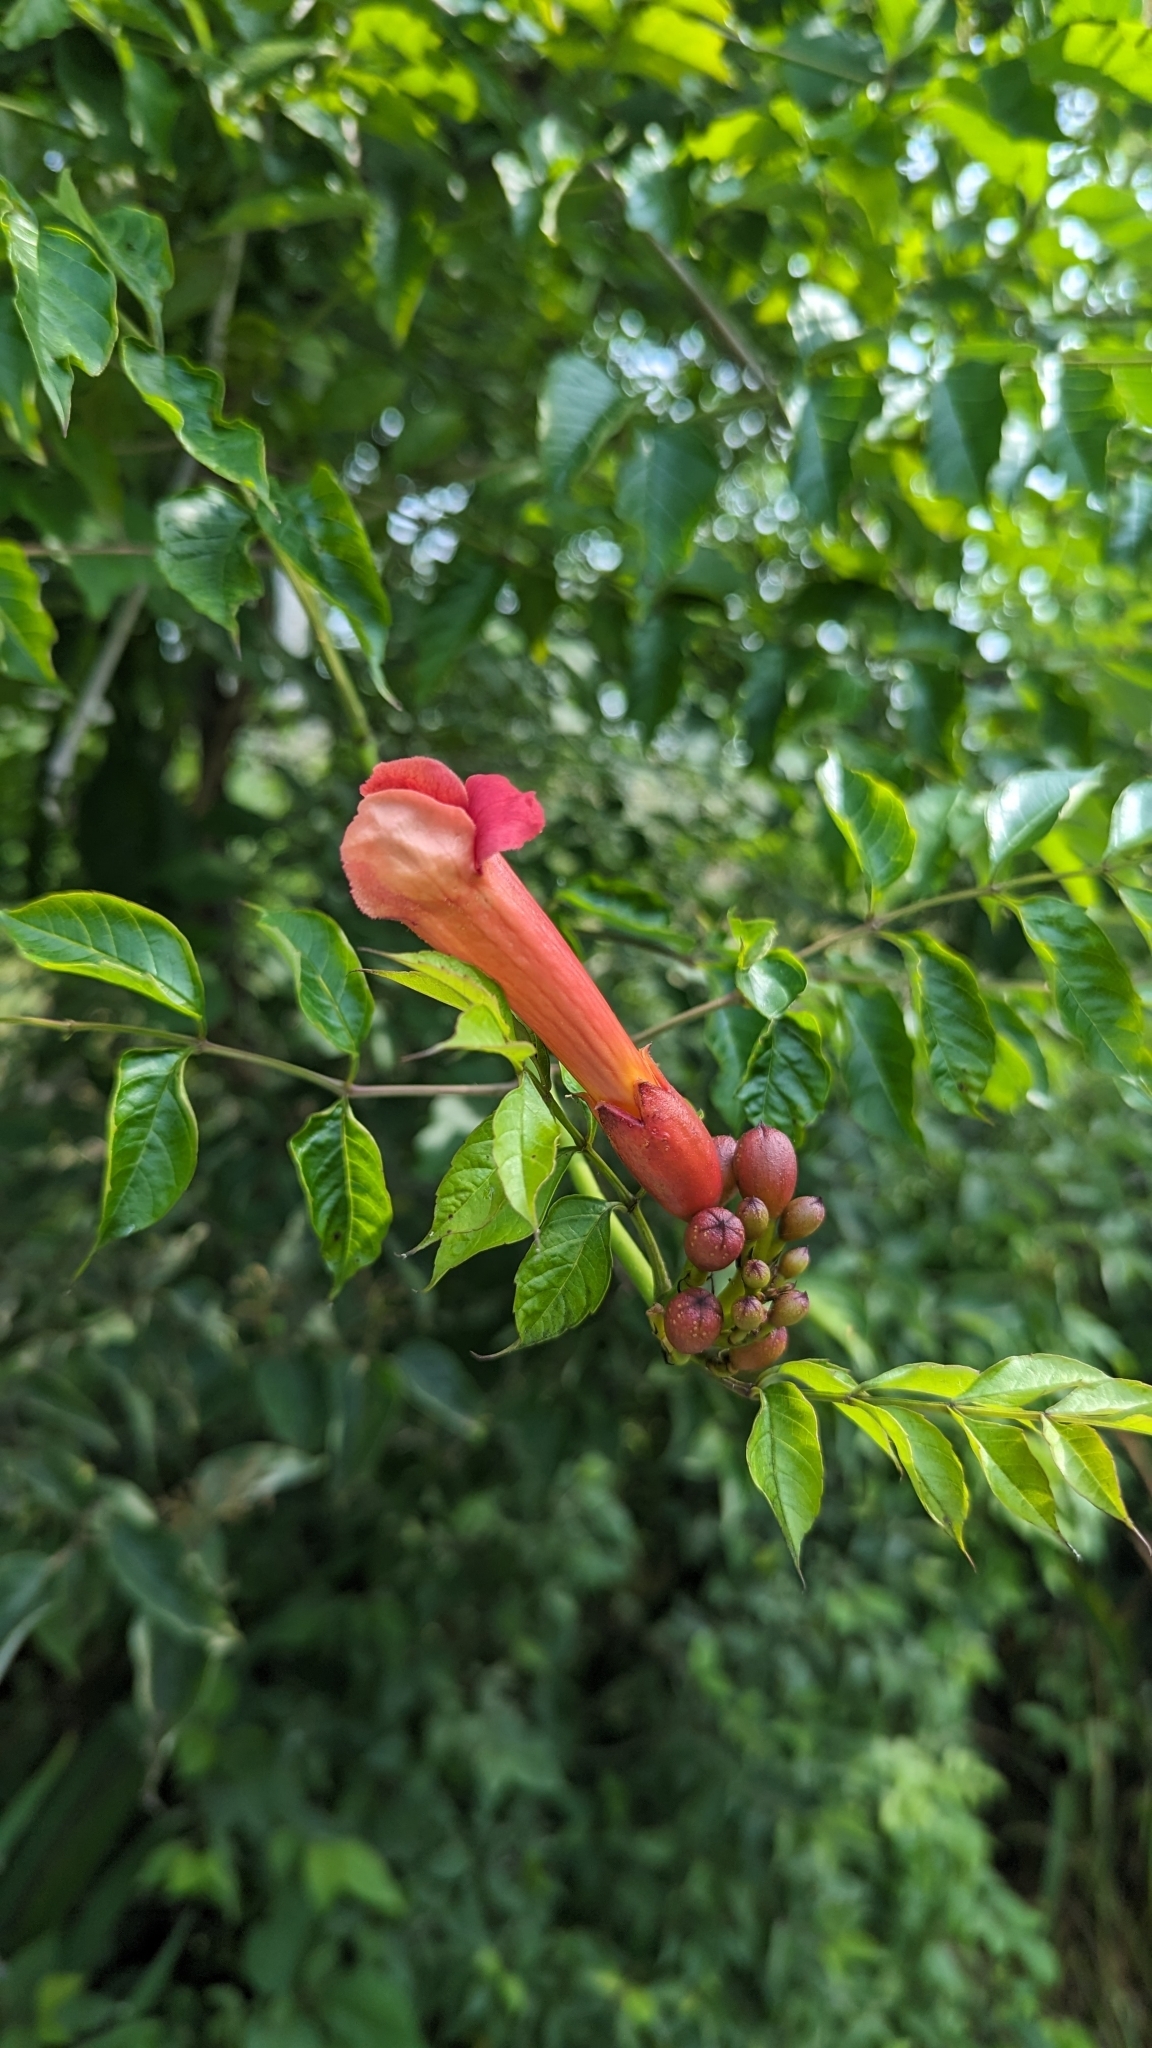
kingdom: Plantae
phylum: Tracheophyta
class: Magnoliopsida
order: Lamiales
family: Bignoniaceae
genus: Campsis
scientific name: Campsis radicans
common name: Trumpet-creeper
